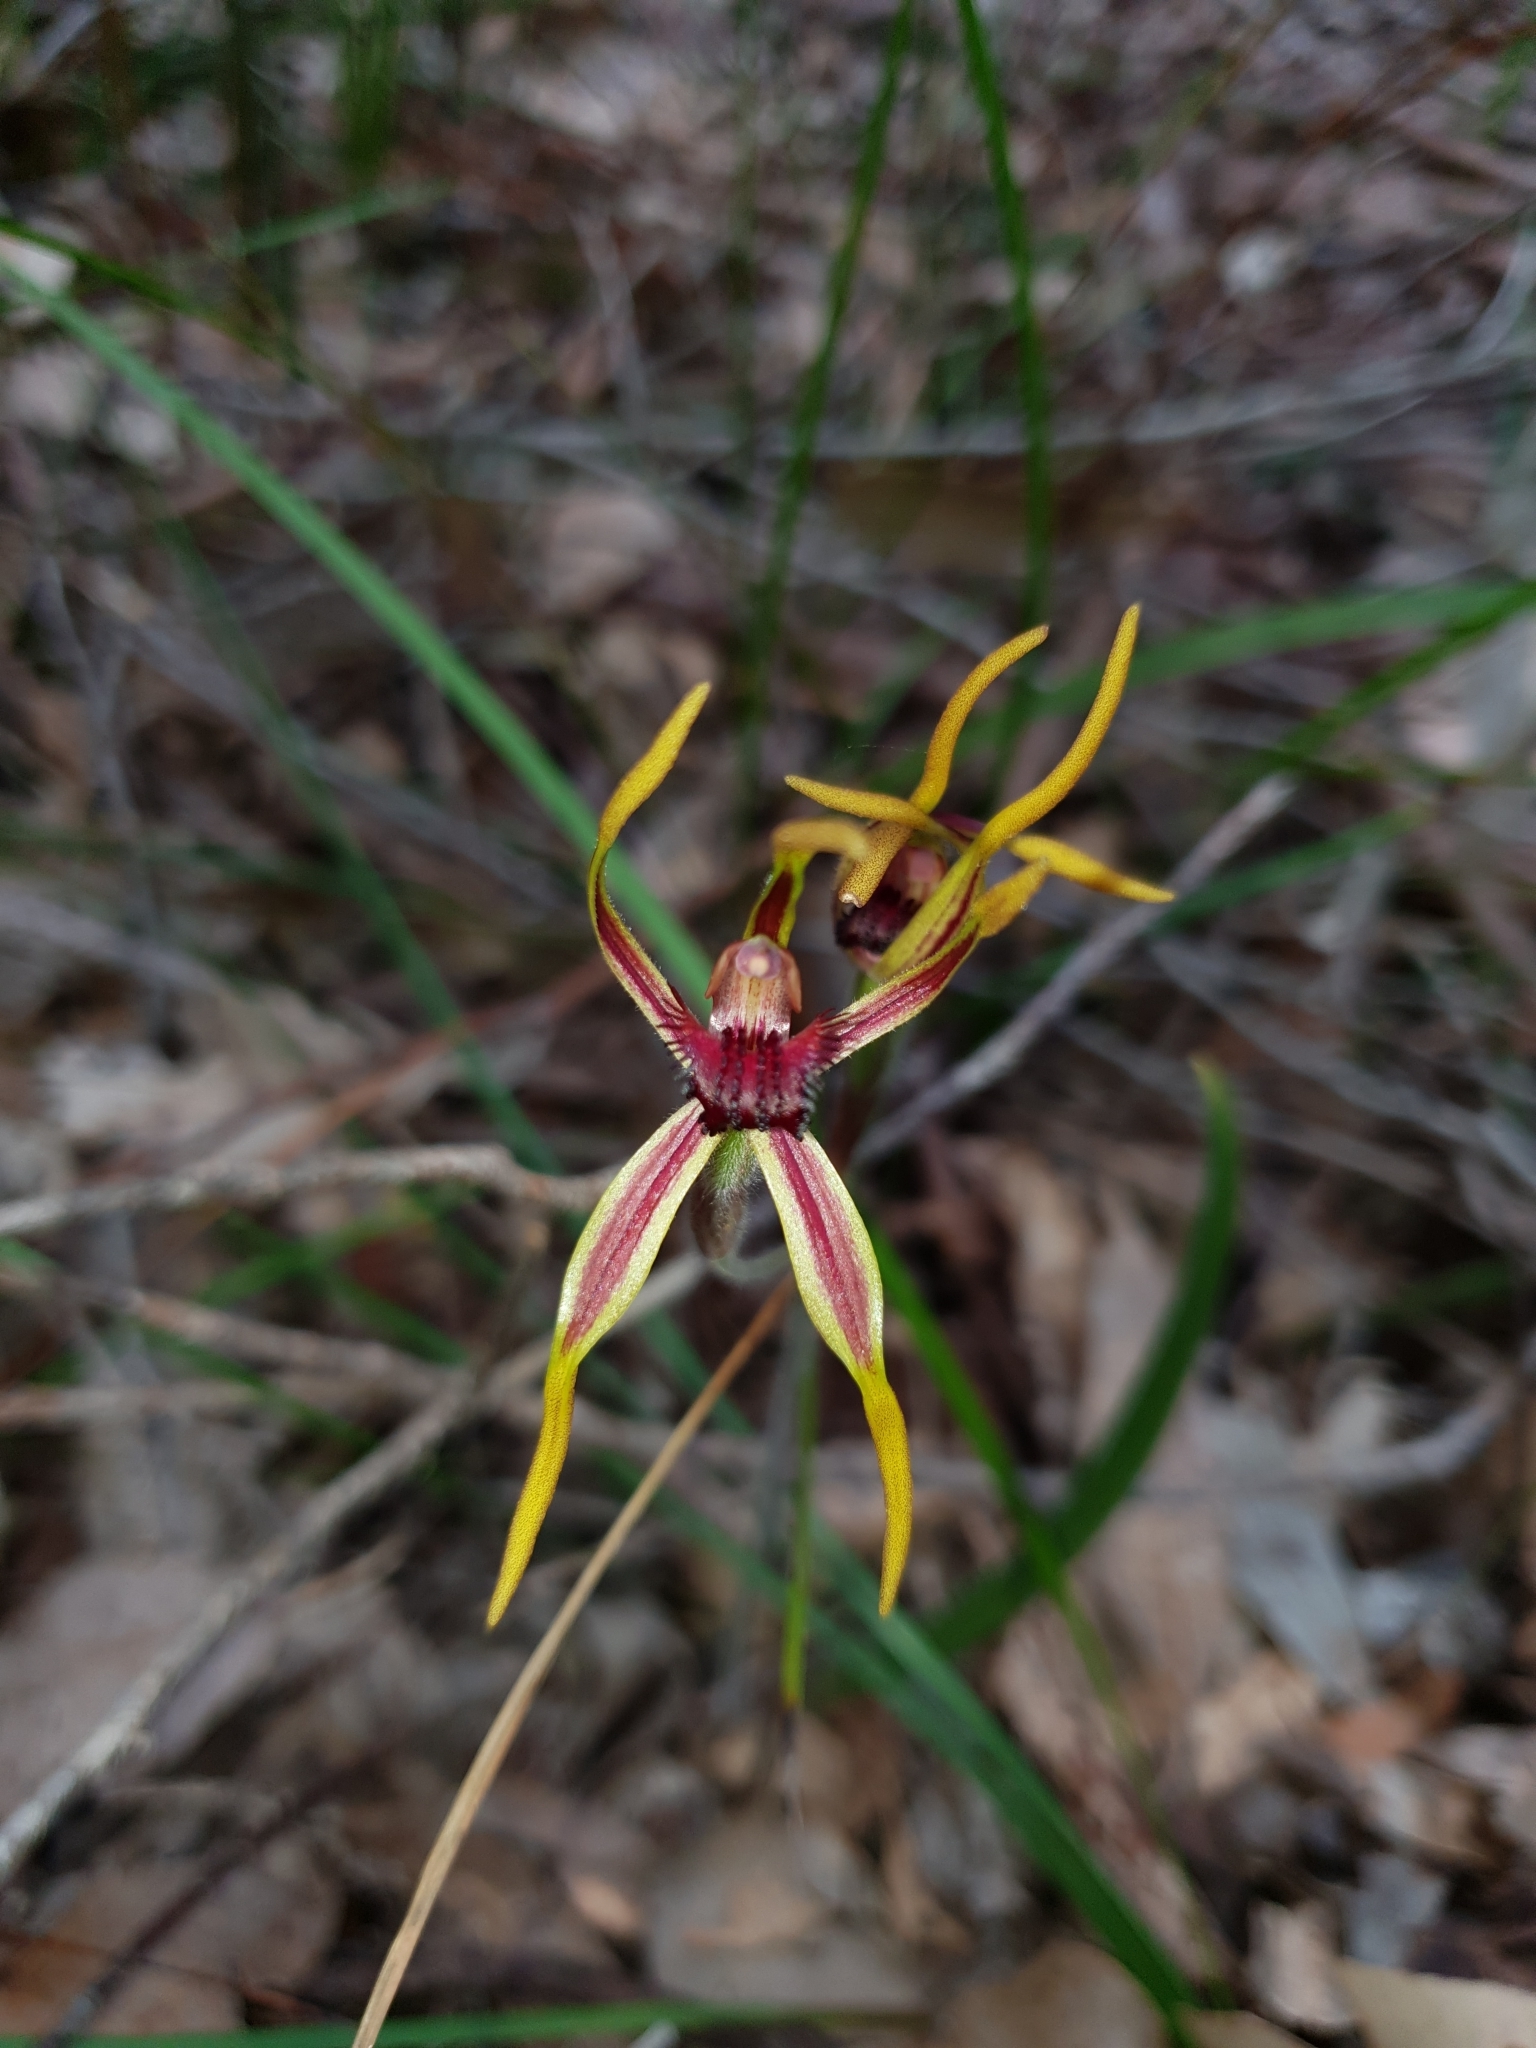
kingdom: Plantae
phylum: Tracheophyta
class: Liliopsida
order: Asparagales
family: Orchidaceae
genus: Caladenia
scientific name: Caladenia arrecta
